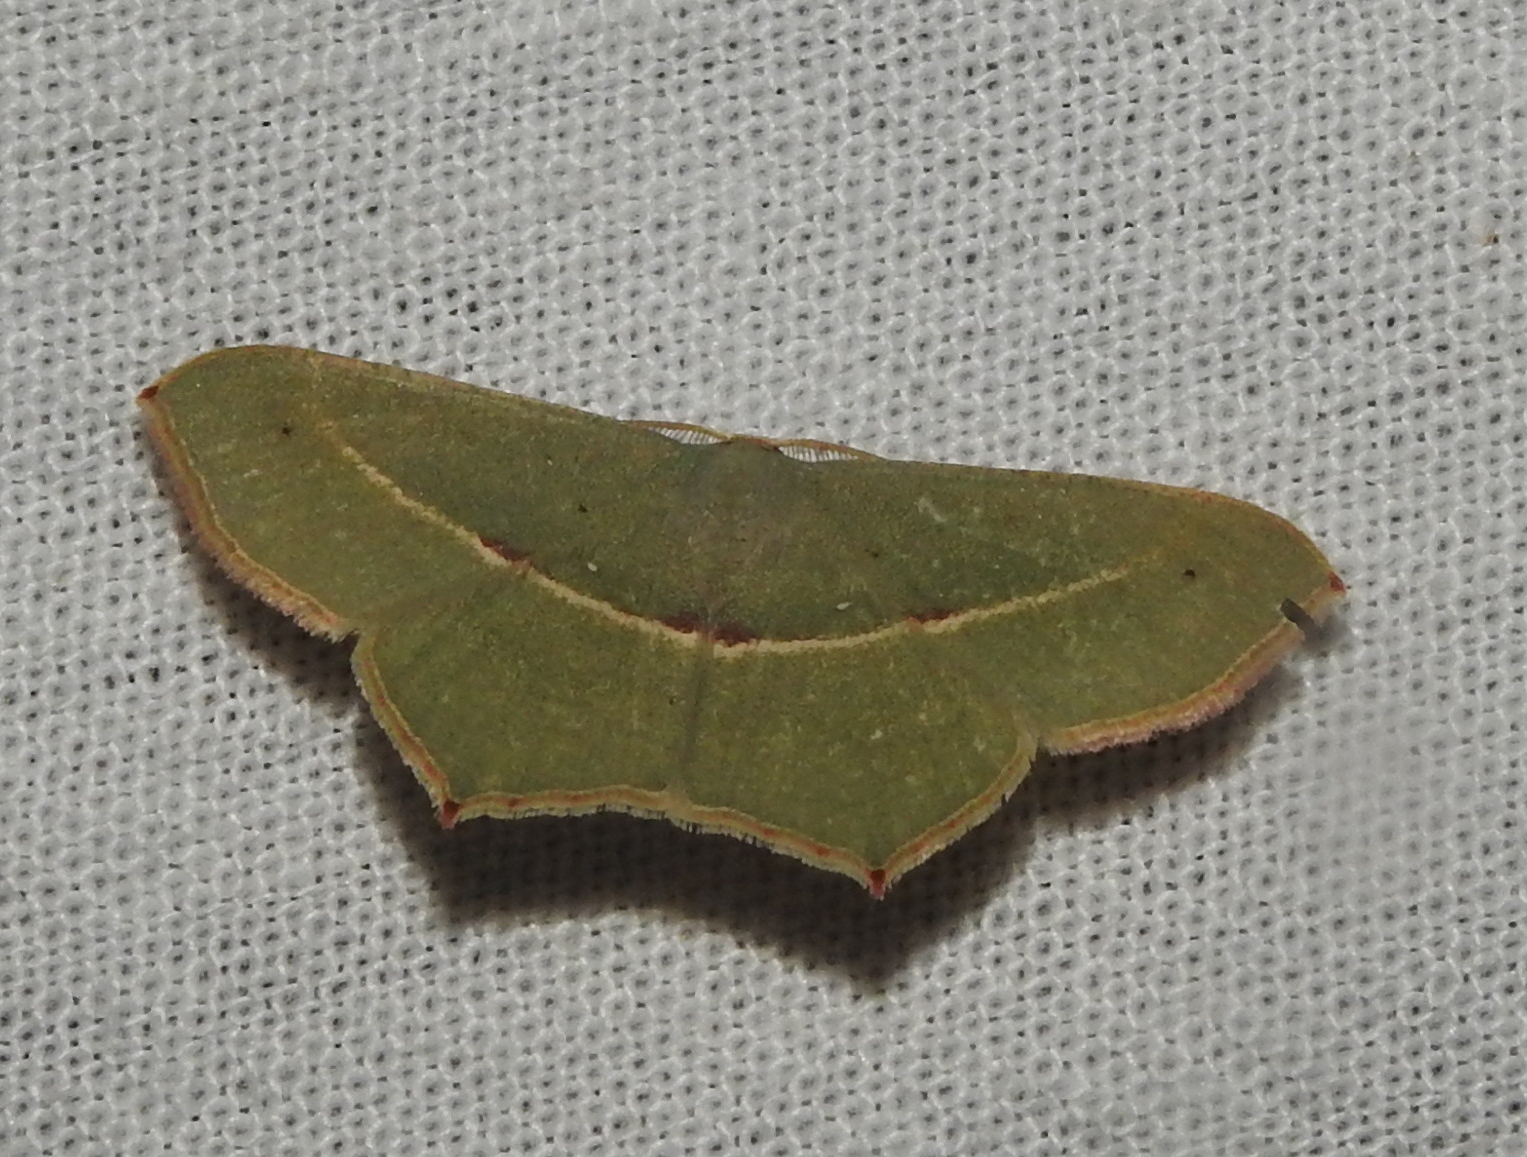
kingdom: Animalia
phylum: Arthropoda
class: Insecta
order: Lepidoptera
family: Geometridae
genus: Traminda
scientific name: Traminda mundissima
